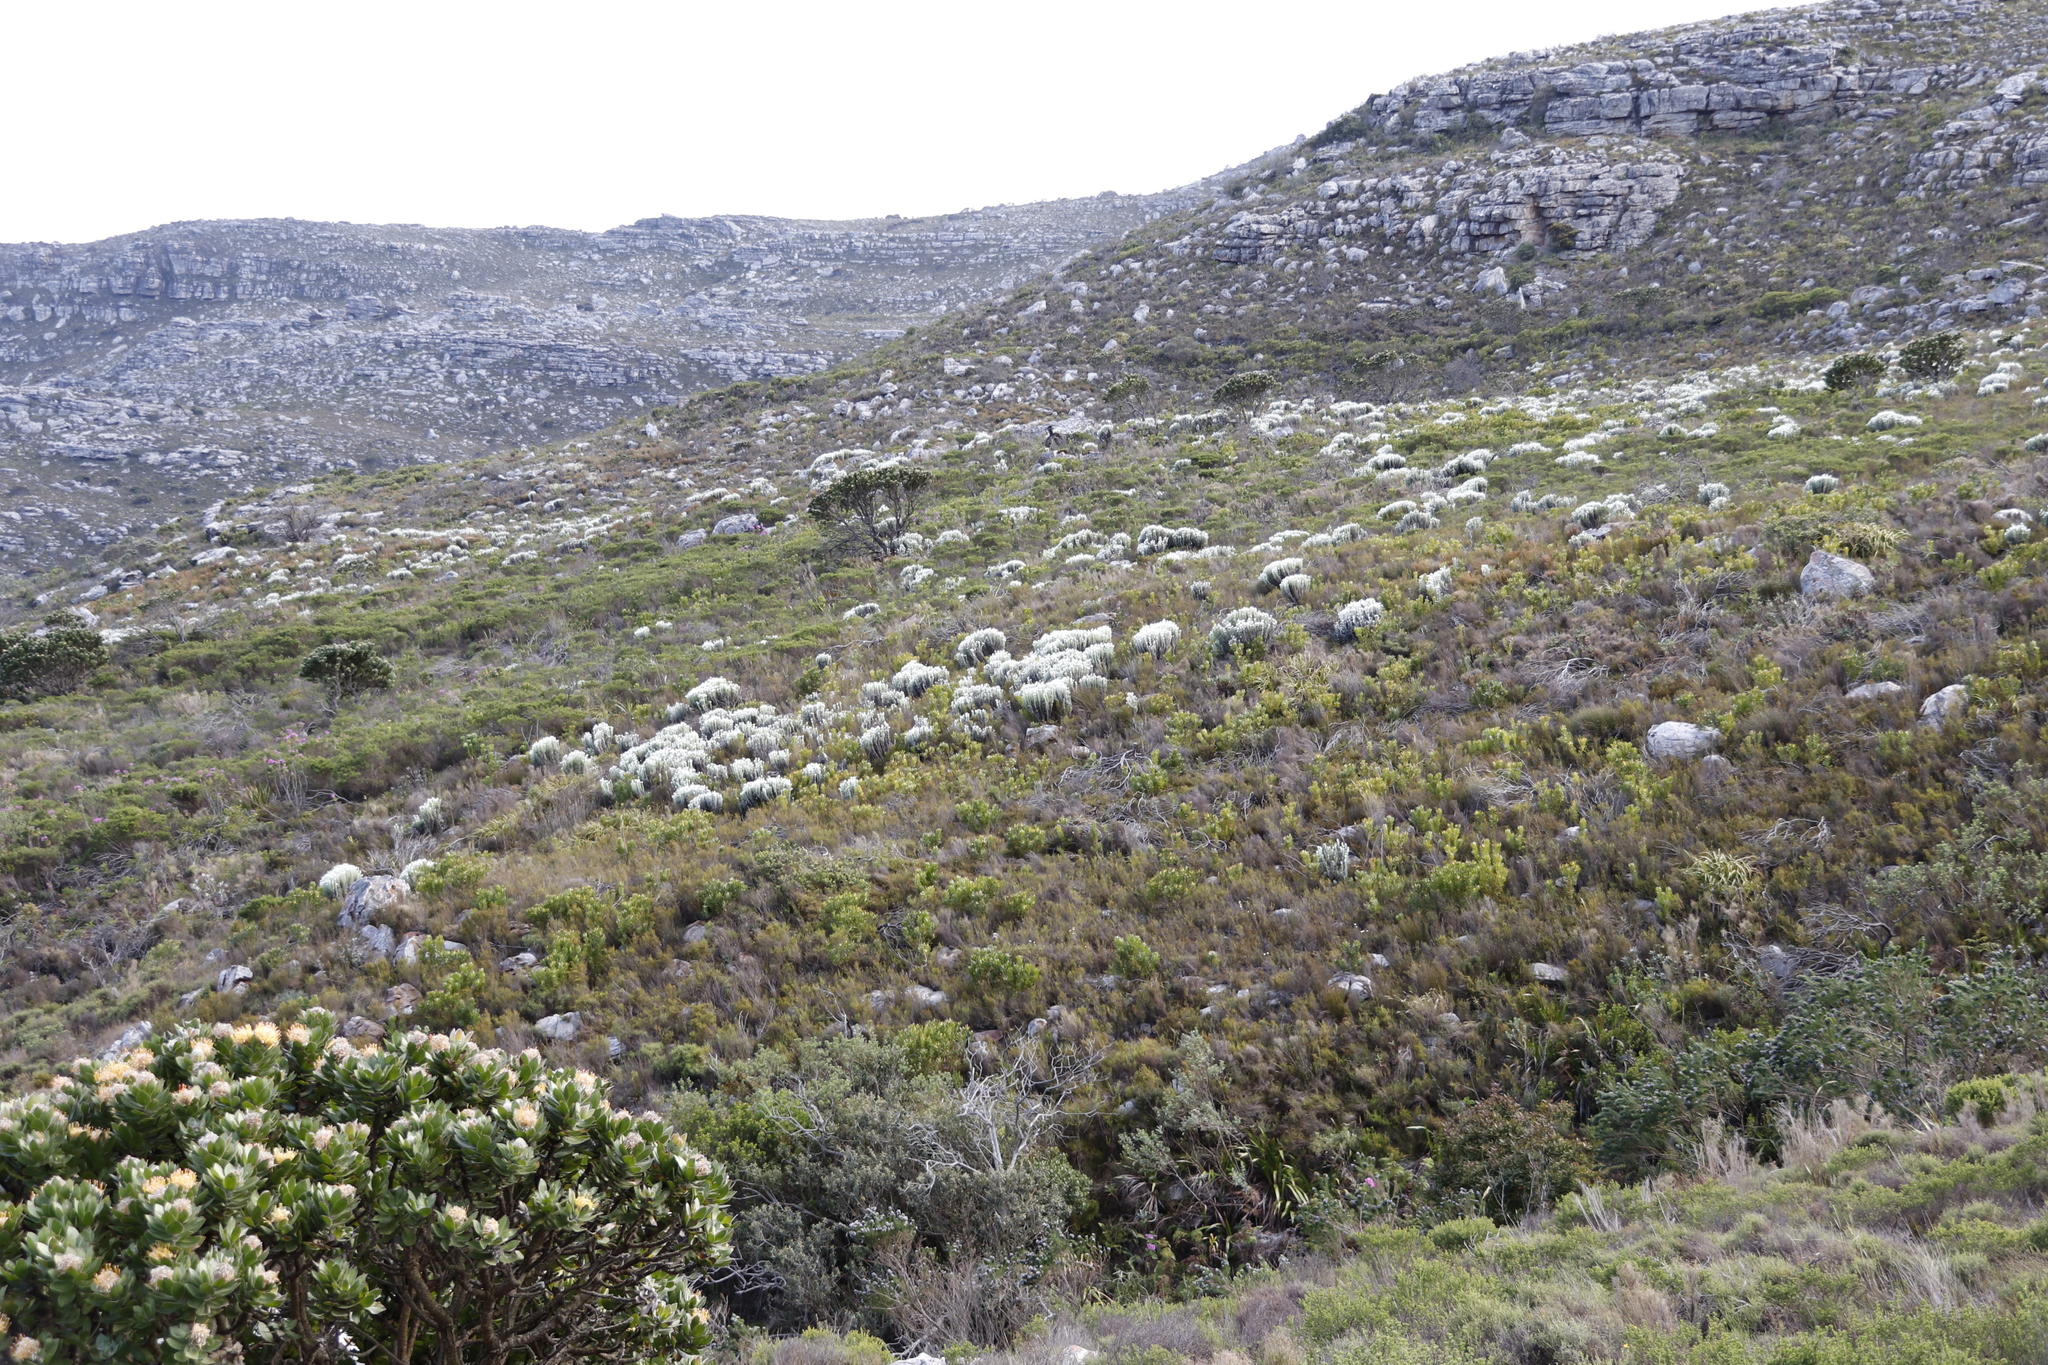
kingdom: Plantae
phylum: Tracheophyta
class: Magnoliopsida
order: Asterales
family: Asteraceae
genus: Syncarpha
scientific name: Syncarpha vestita
